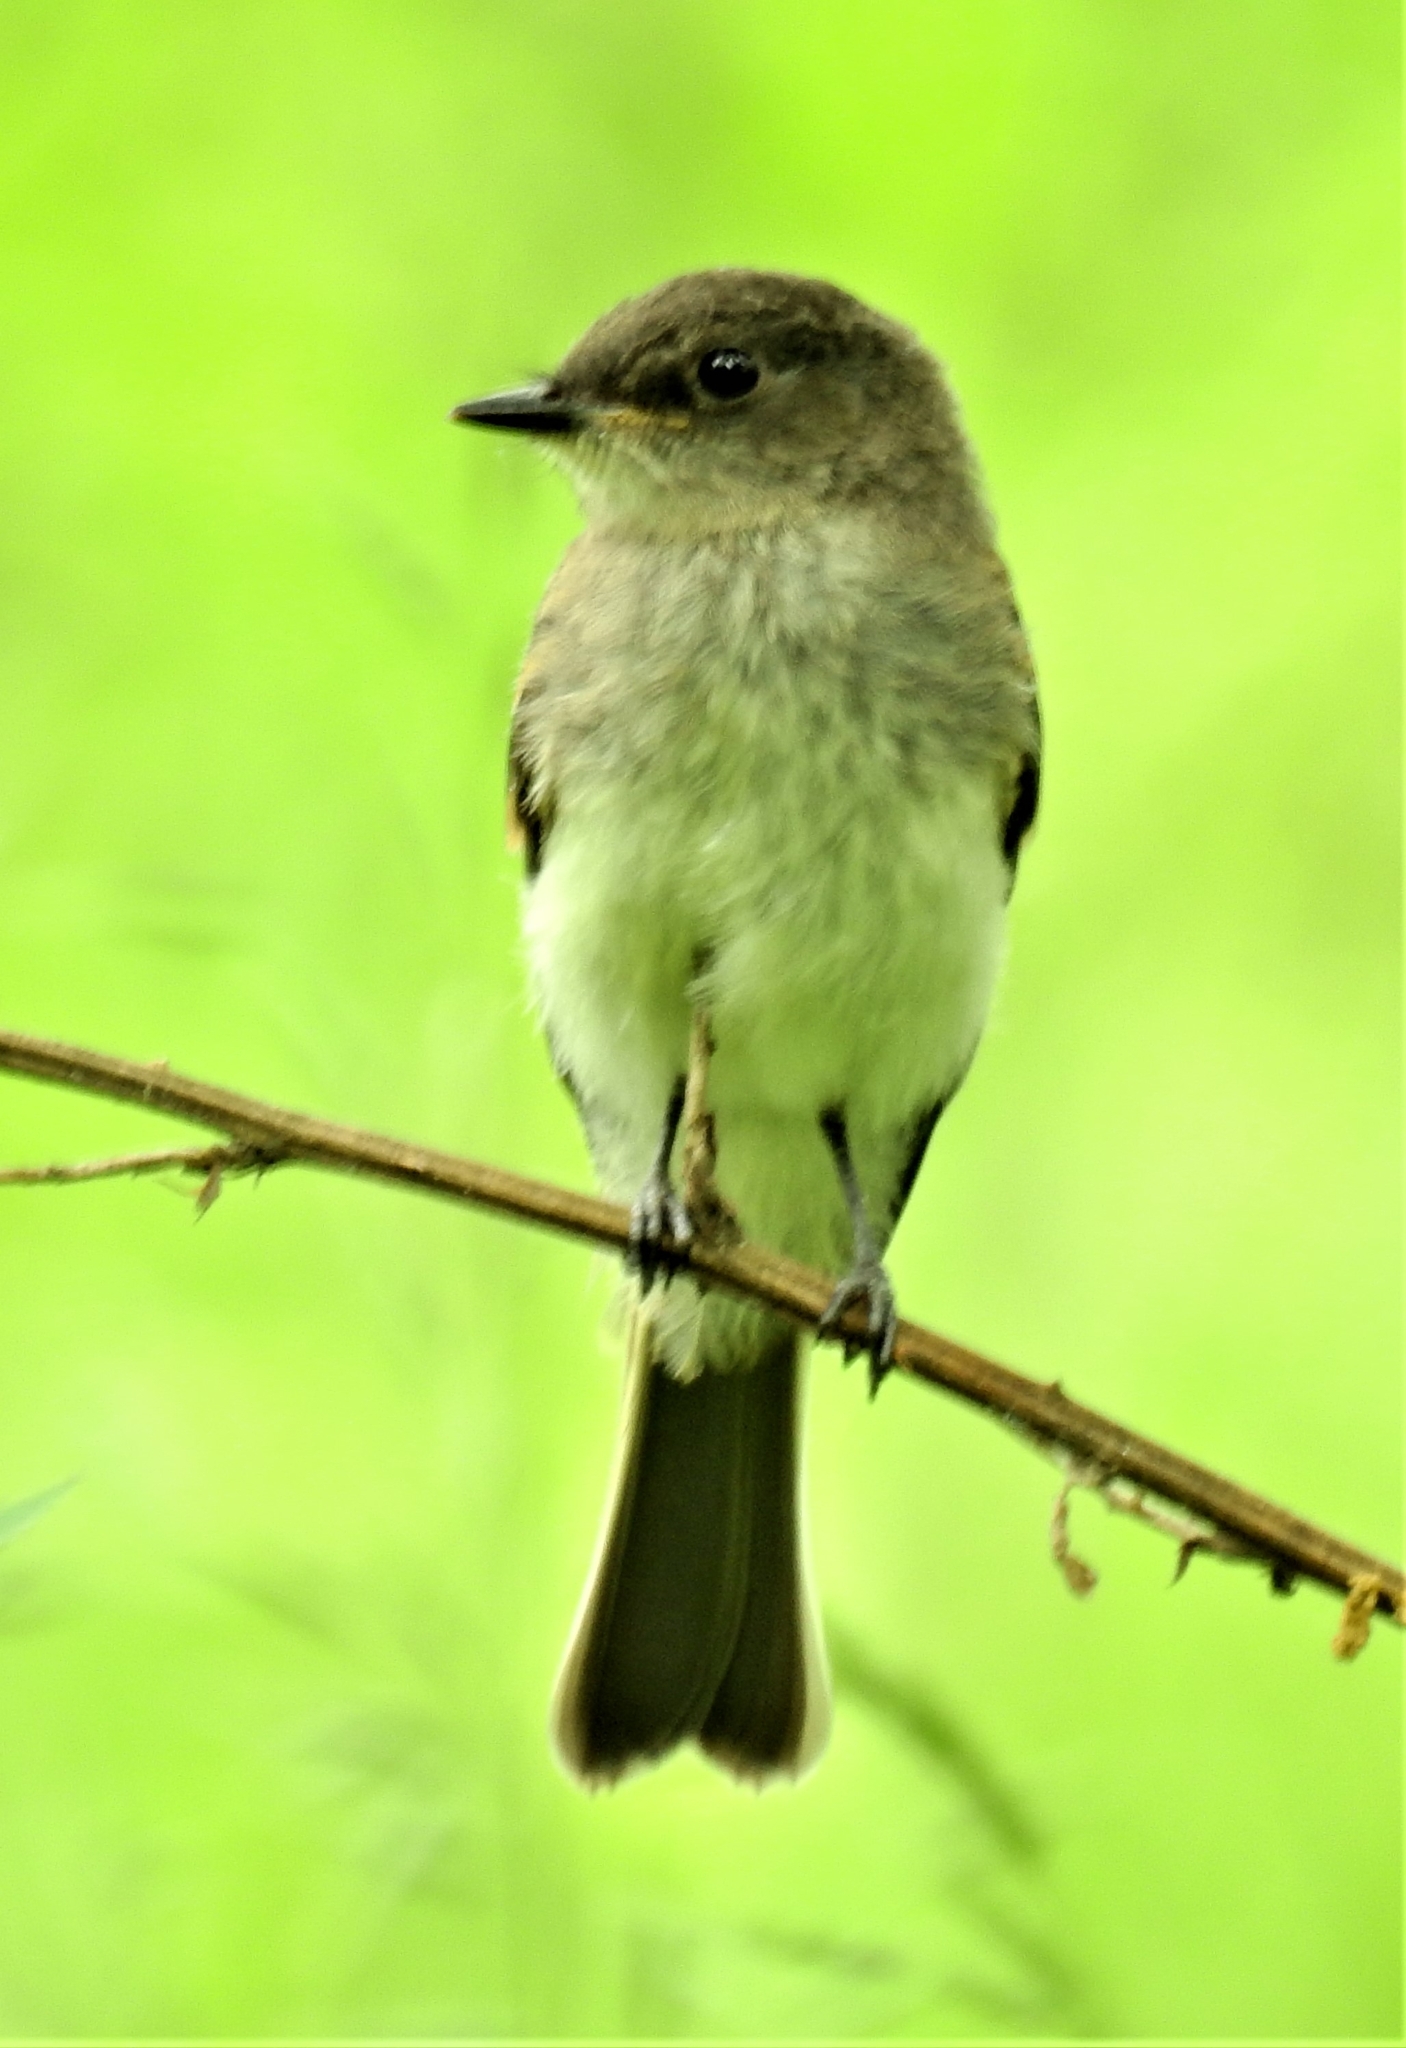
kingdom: Animalia
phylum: Chordata
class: Aves
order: Passeriformes
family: Tyrannidae
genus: Sayornis
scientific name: Sayornis phoebe
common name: Eastern phoebe
